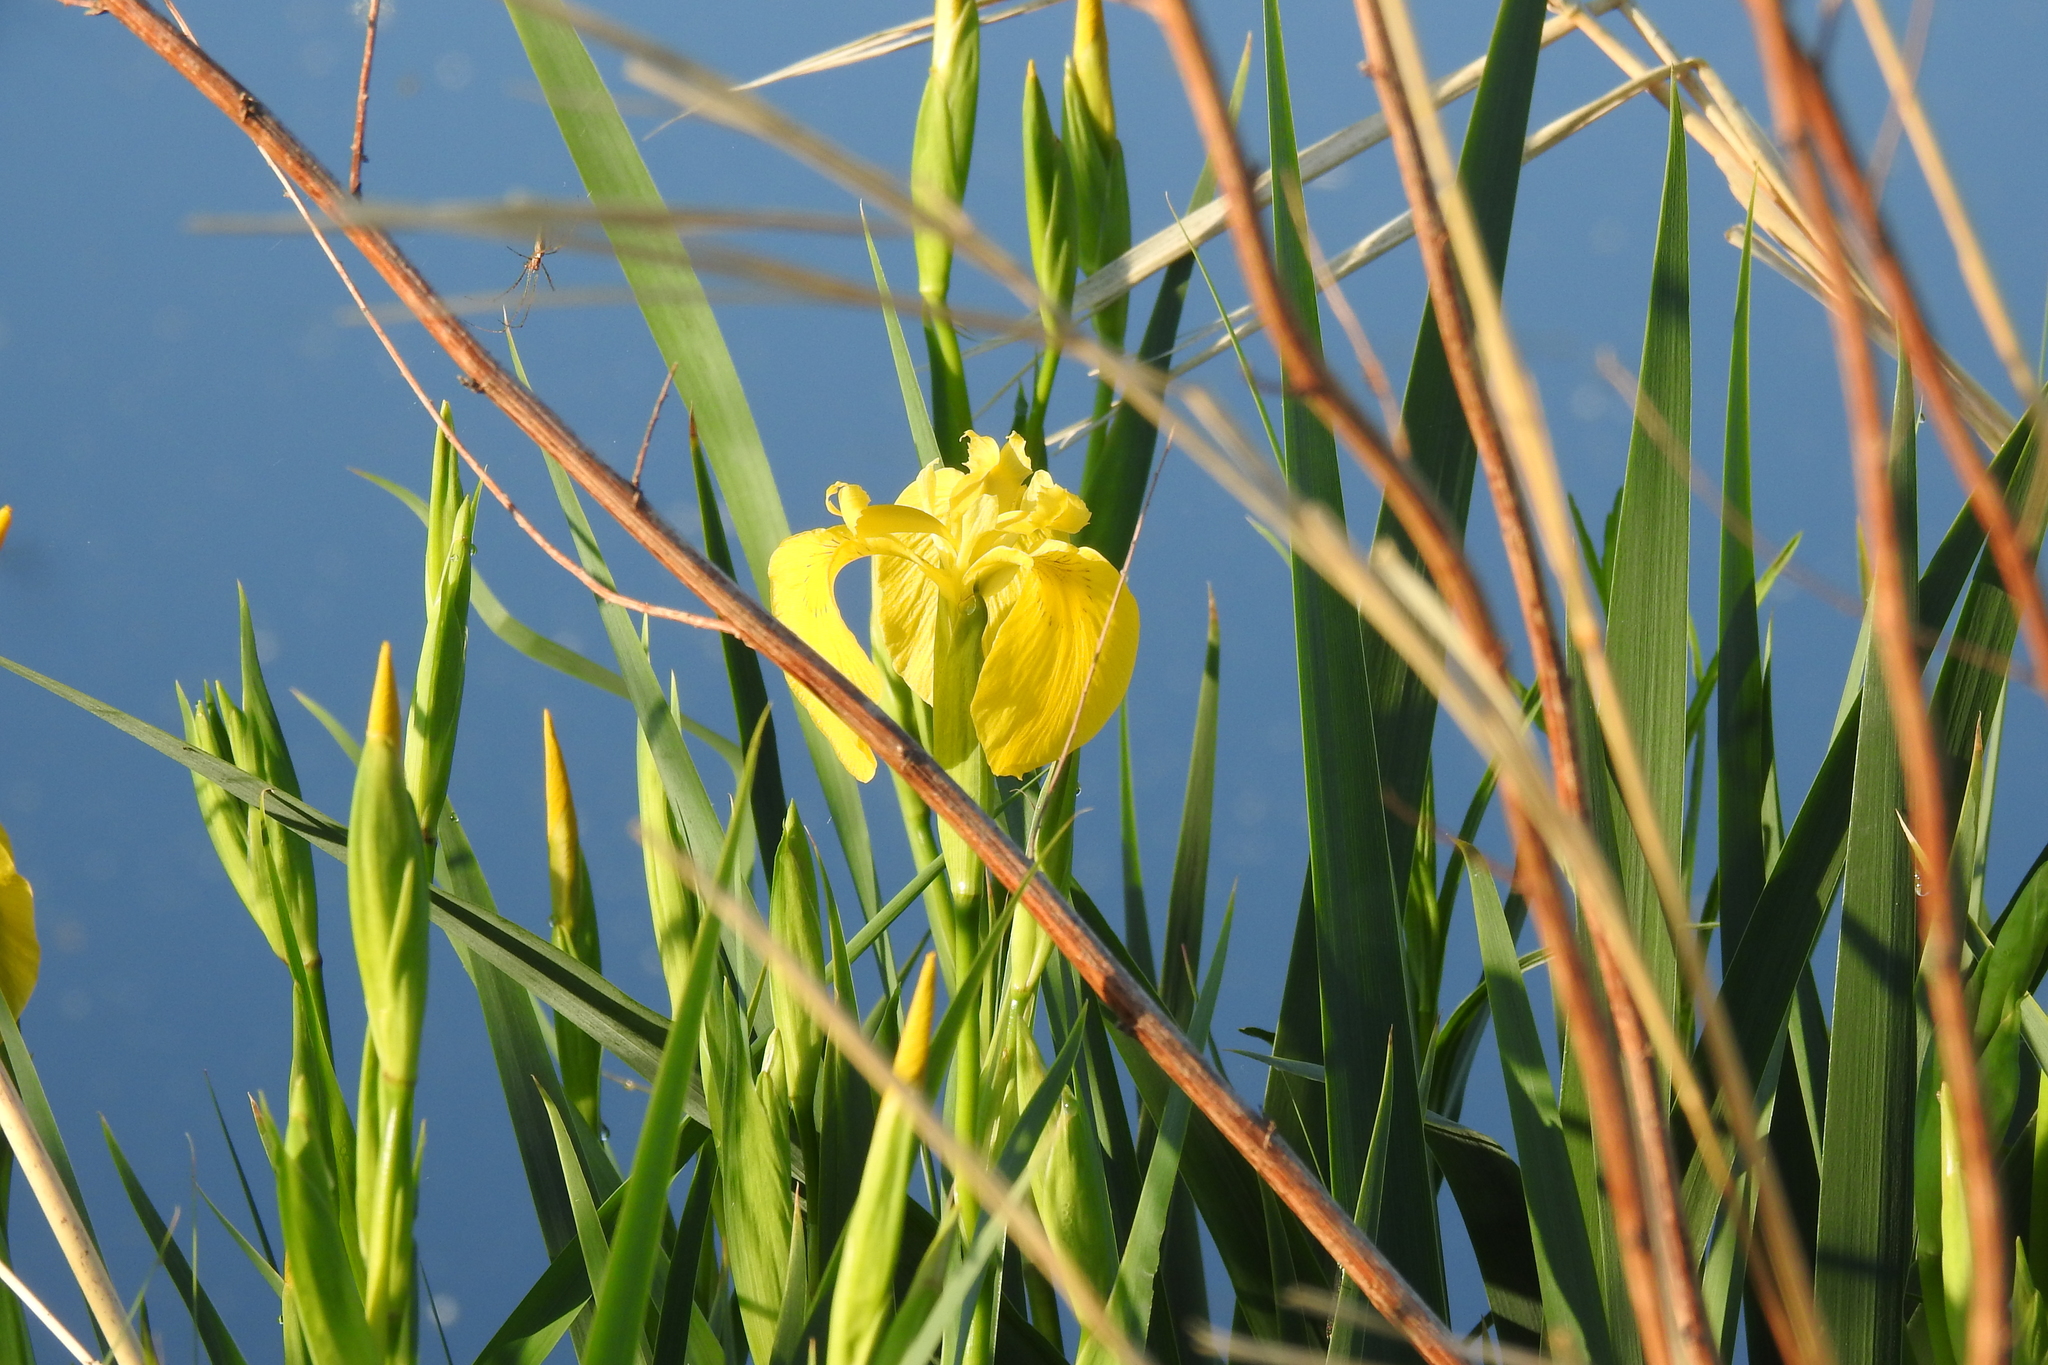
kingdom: Plantae
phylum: Tracheophyta
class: Liliopsida
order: Asparagales
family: Iridaceae
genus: Iris
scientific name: Iris pseudacorus
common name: Yellow flag
